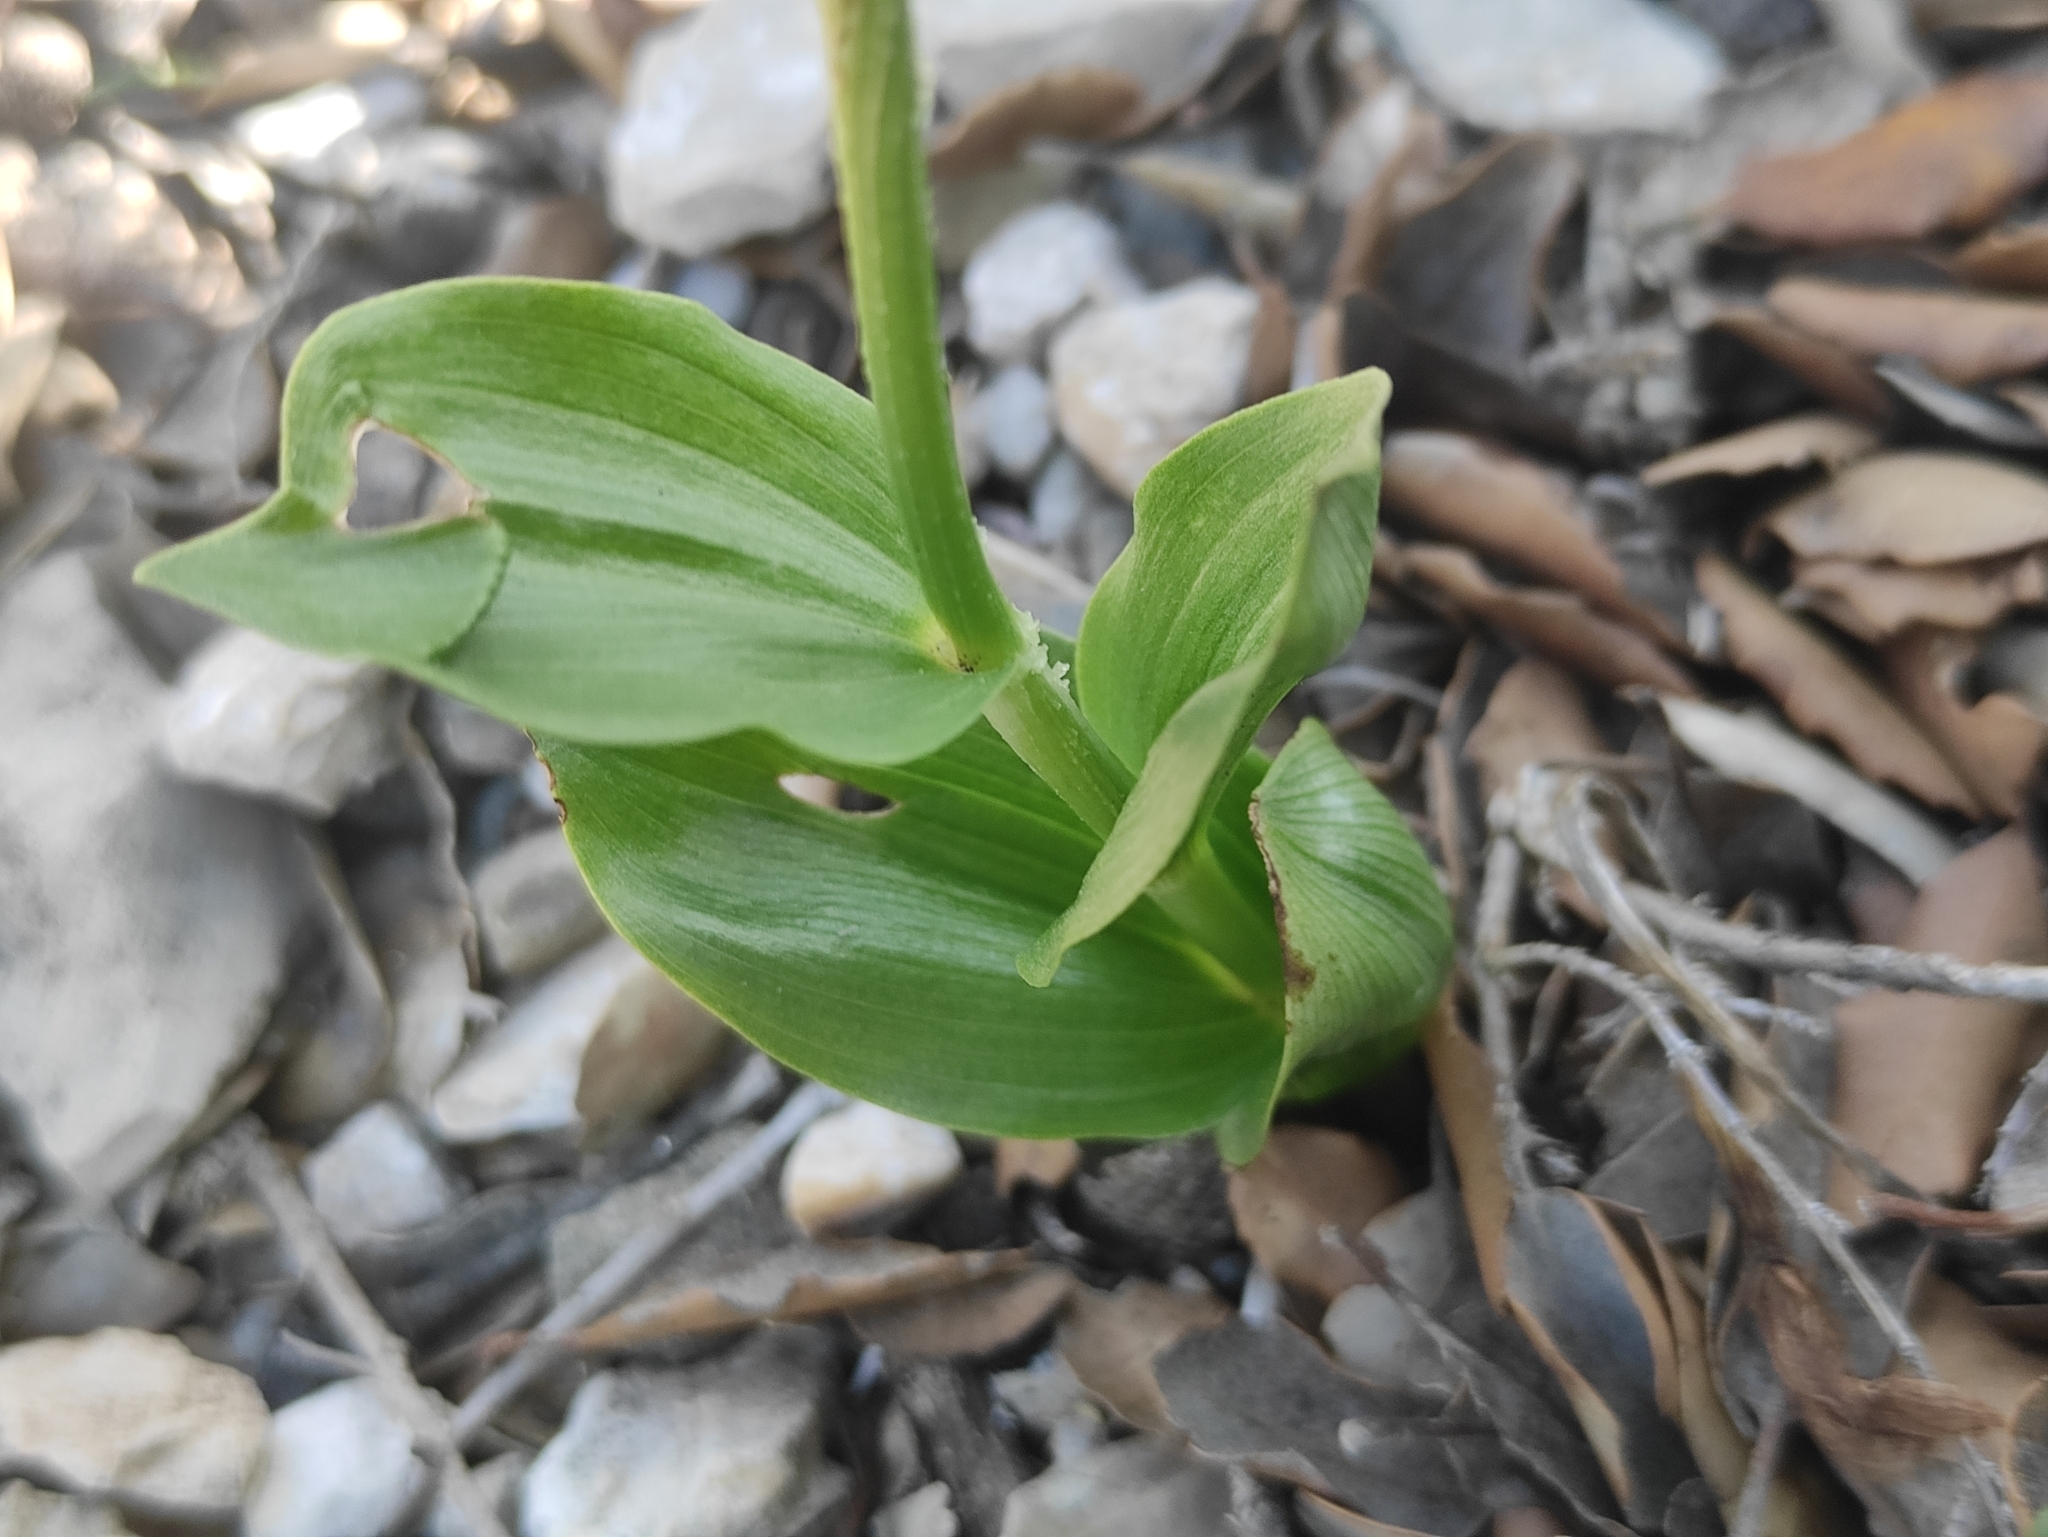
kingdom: Plantae
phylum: Tracheophyta
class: Liliopsida
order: Asparagales
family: Orchidaceae
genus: Cephalanthera
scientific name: Cephalanthera damasonium
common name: White helleborine
